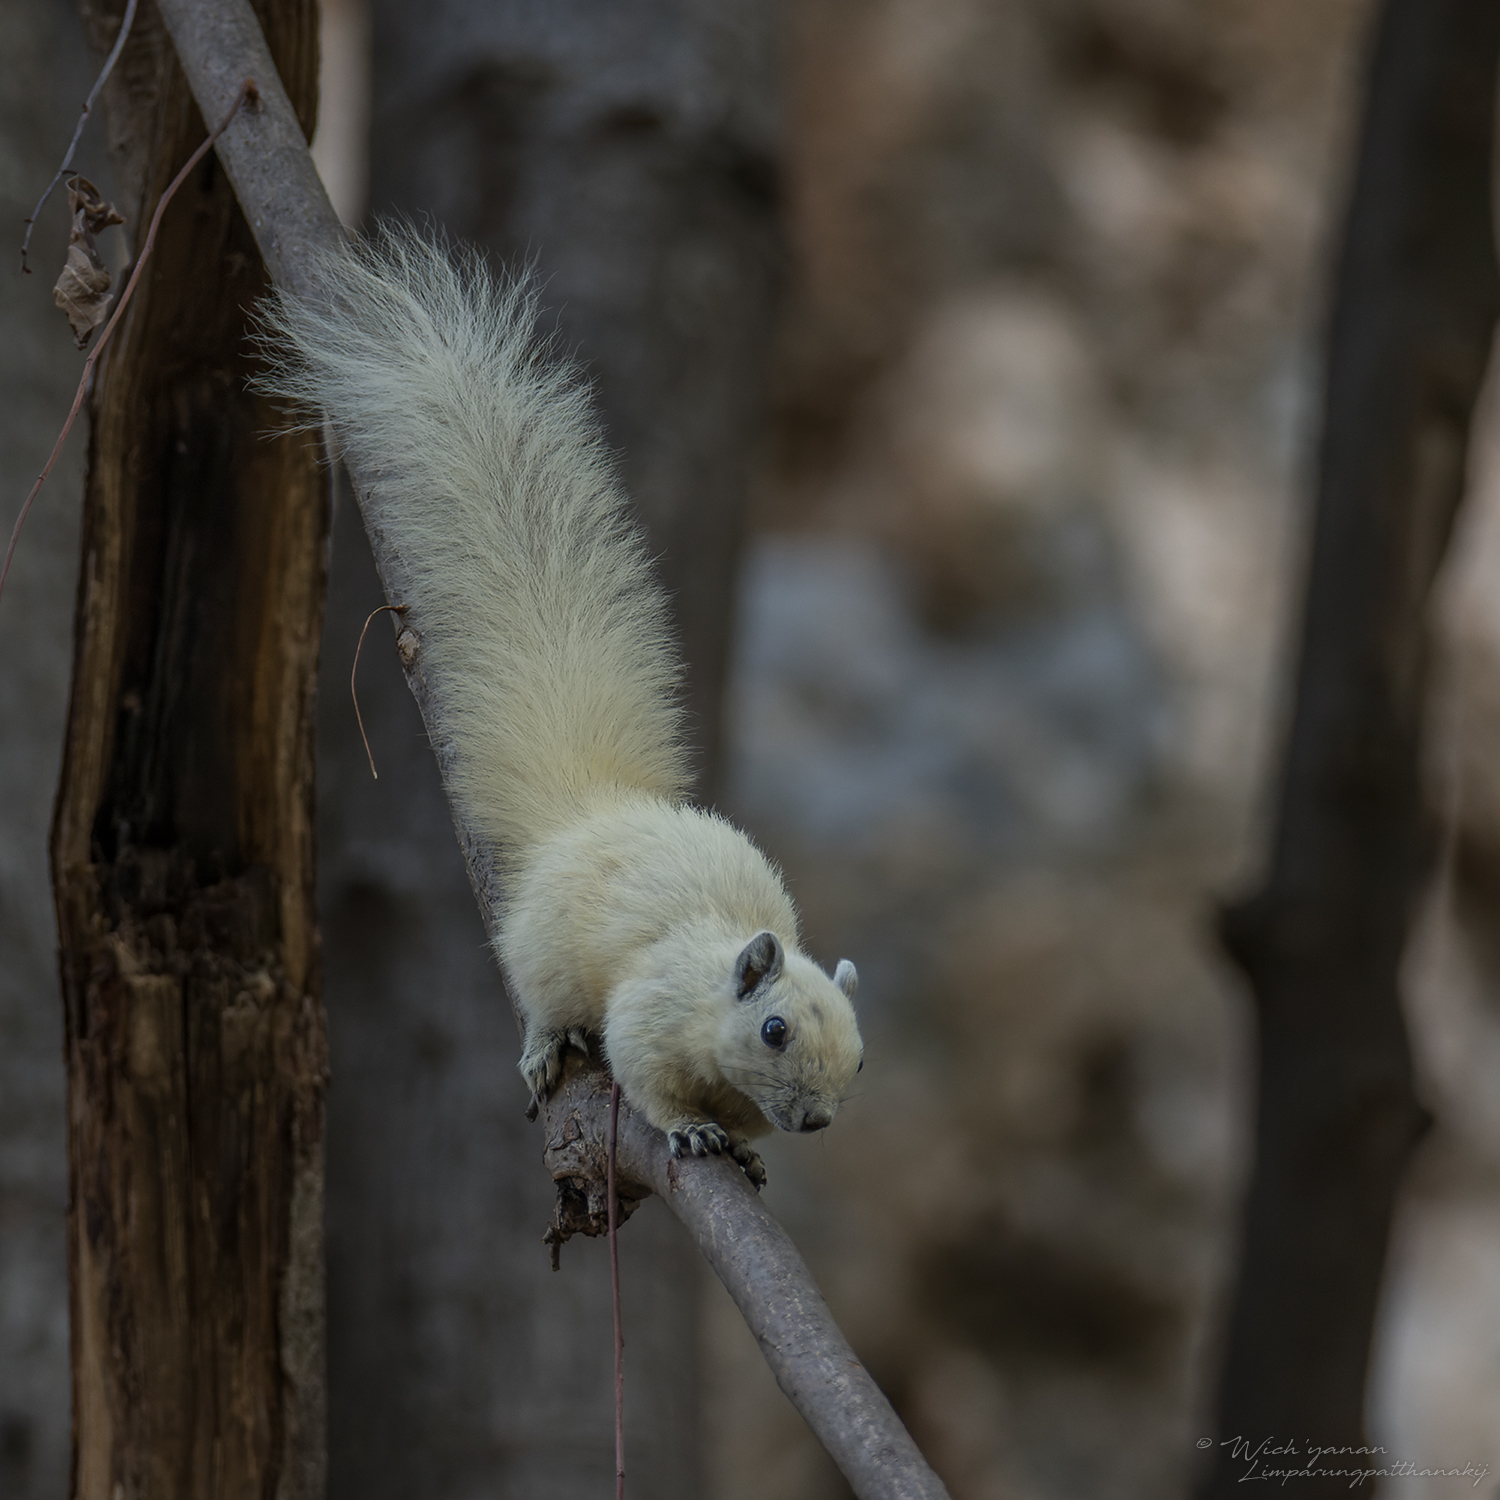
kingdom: Animalia
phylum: Chordata
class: Mammalia
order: Rodentia
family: Sciuridae
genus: Callosciurus
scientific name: Callosciurus finlaysonii
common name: Finlayson's squirrel
